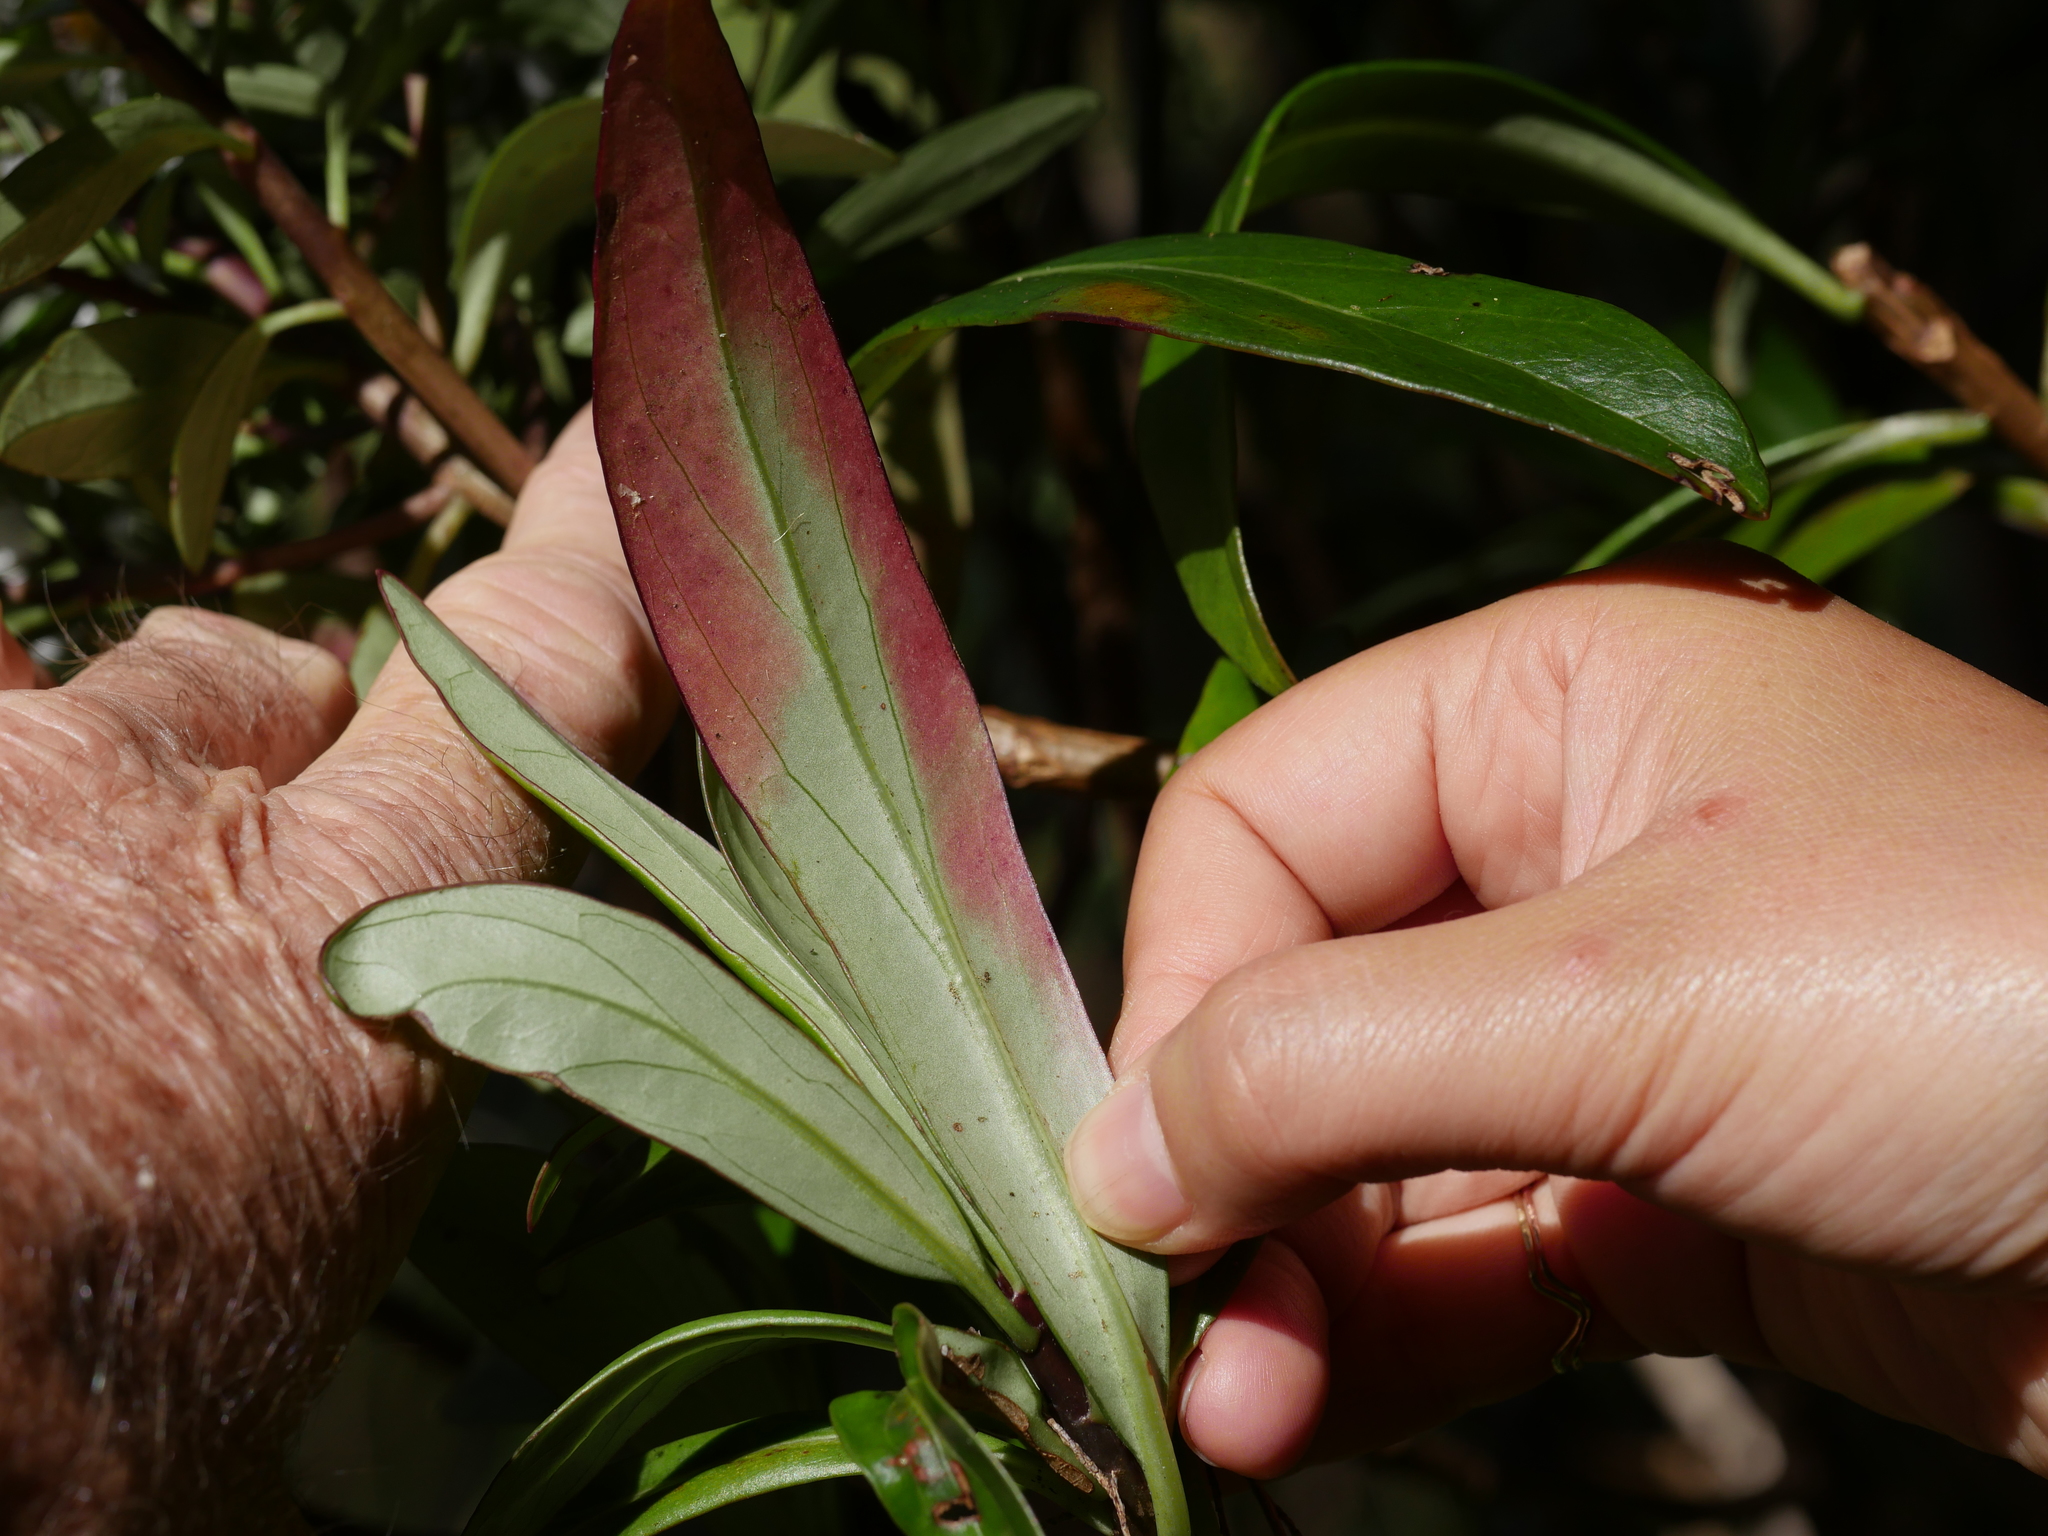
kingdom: Plantae
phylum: Tracheophyta
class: Magnoliopsida
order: Asterales
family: Asteraceae
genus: Brachyglottis
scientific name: Brachyglottis kirkii
